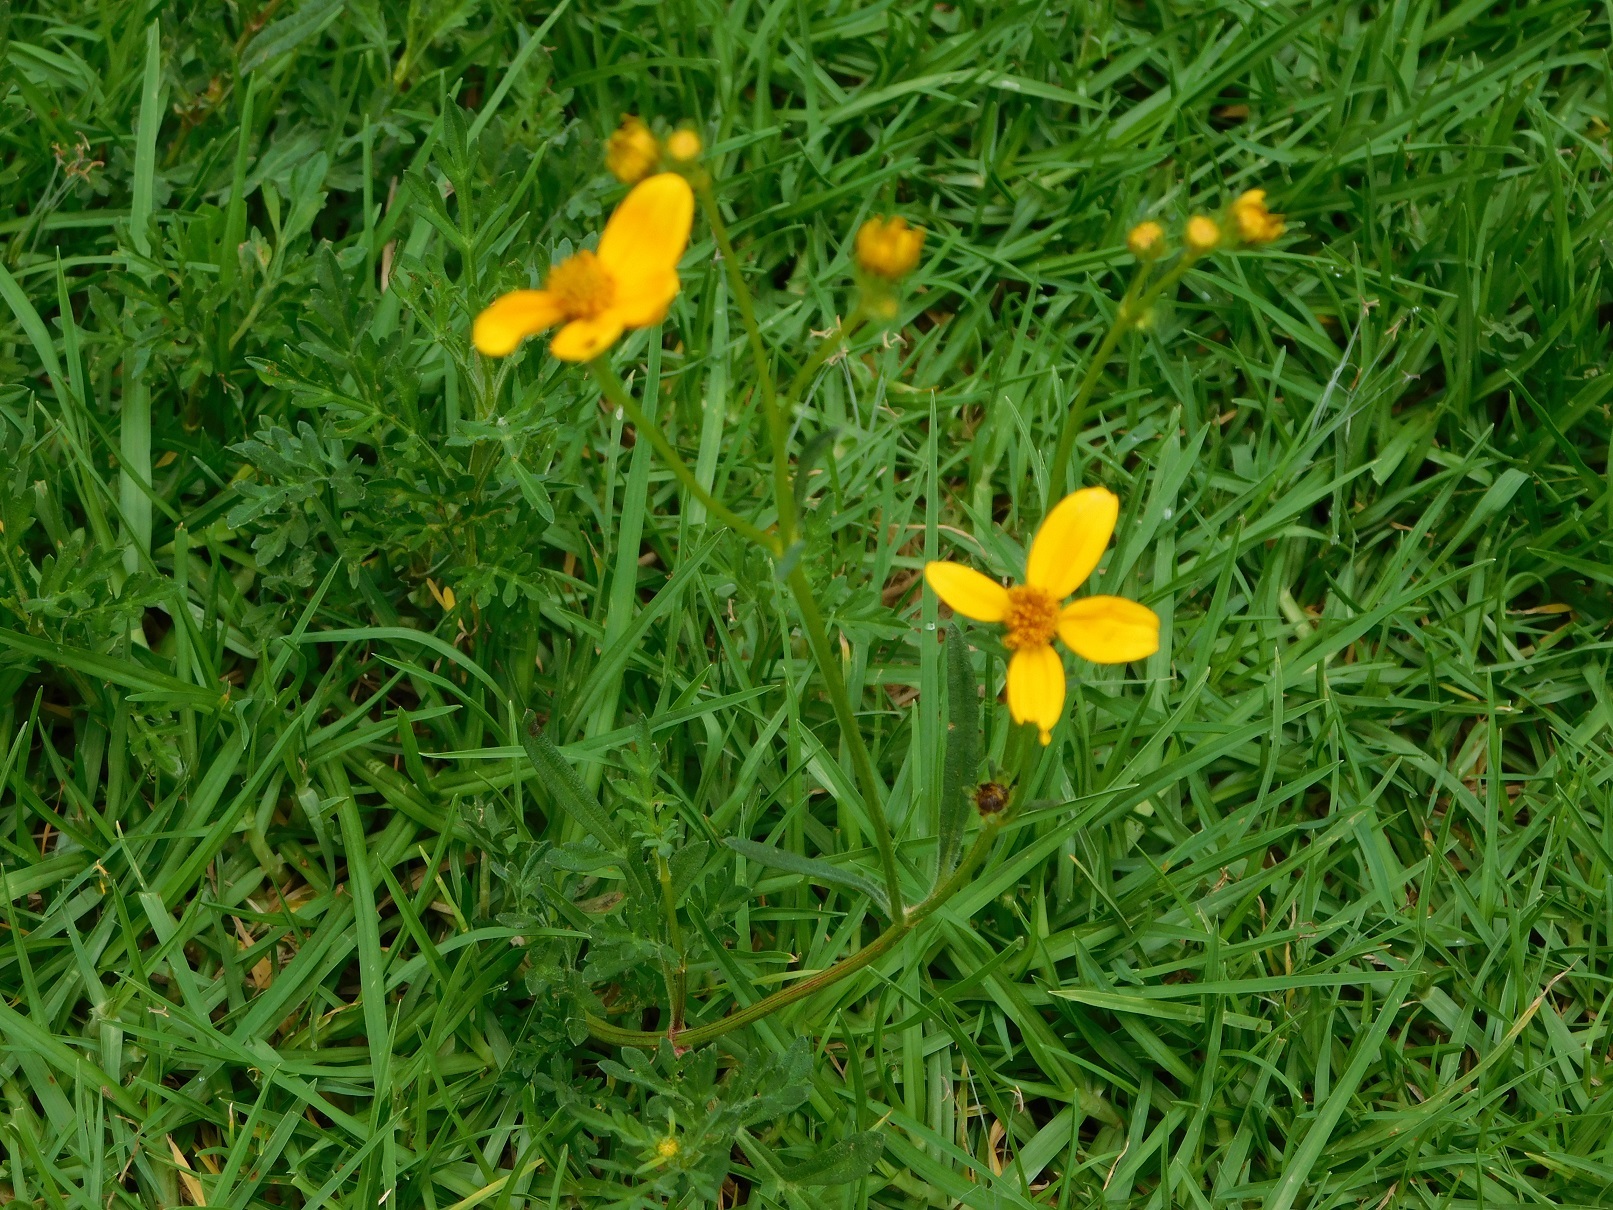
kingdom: Plantae
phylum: Tracheophyta
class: Magnoliopsida
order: Asterales
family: Asteraceae
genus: Bidens
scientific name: Bidens triplinervia
